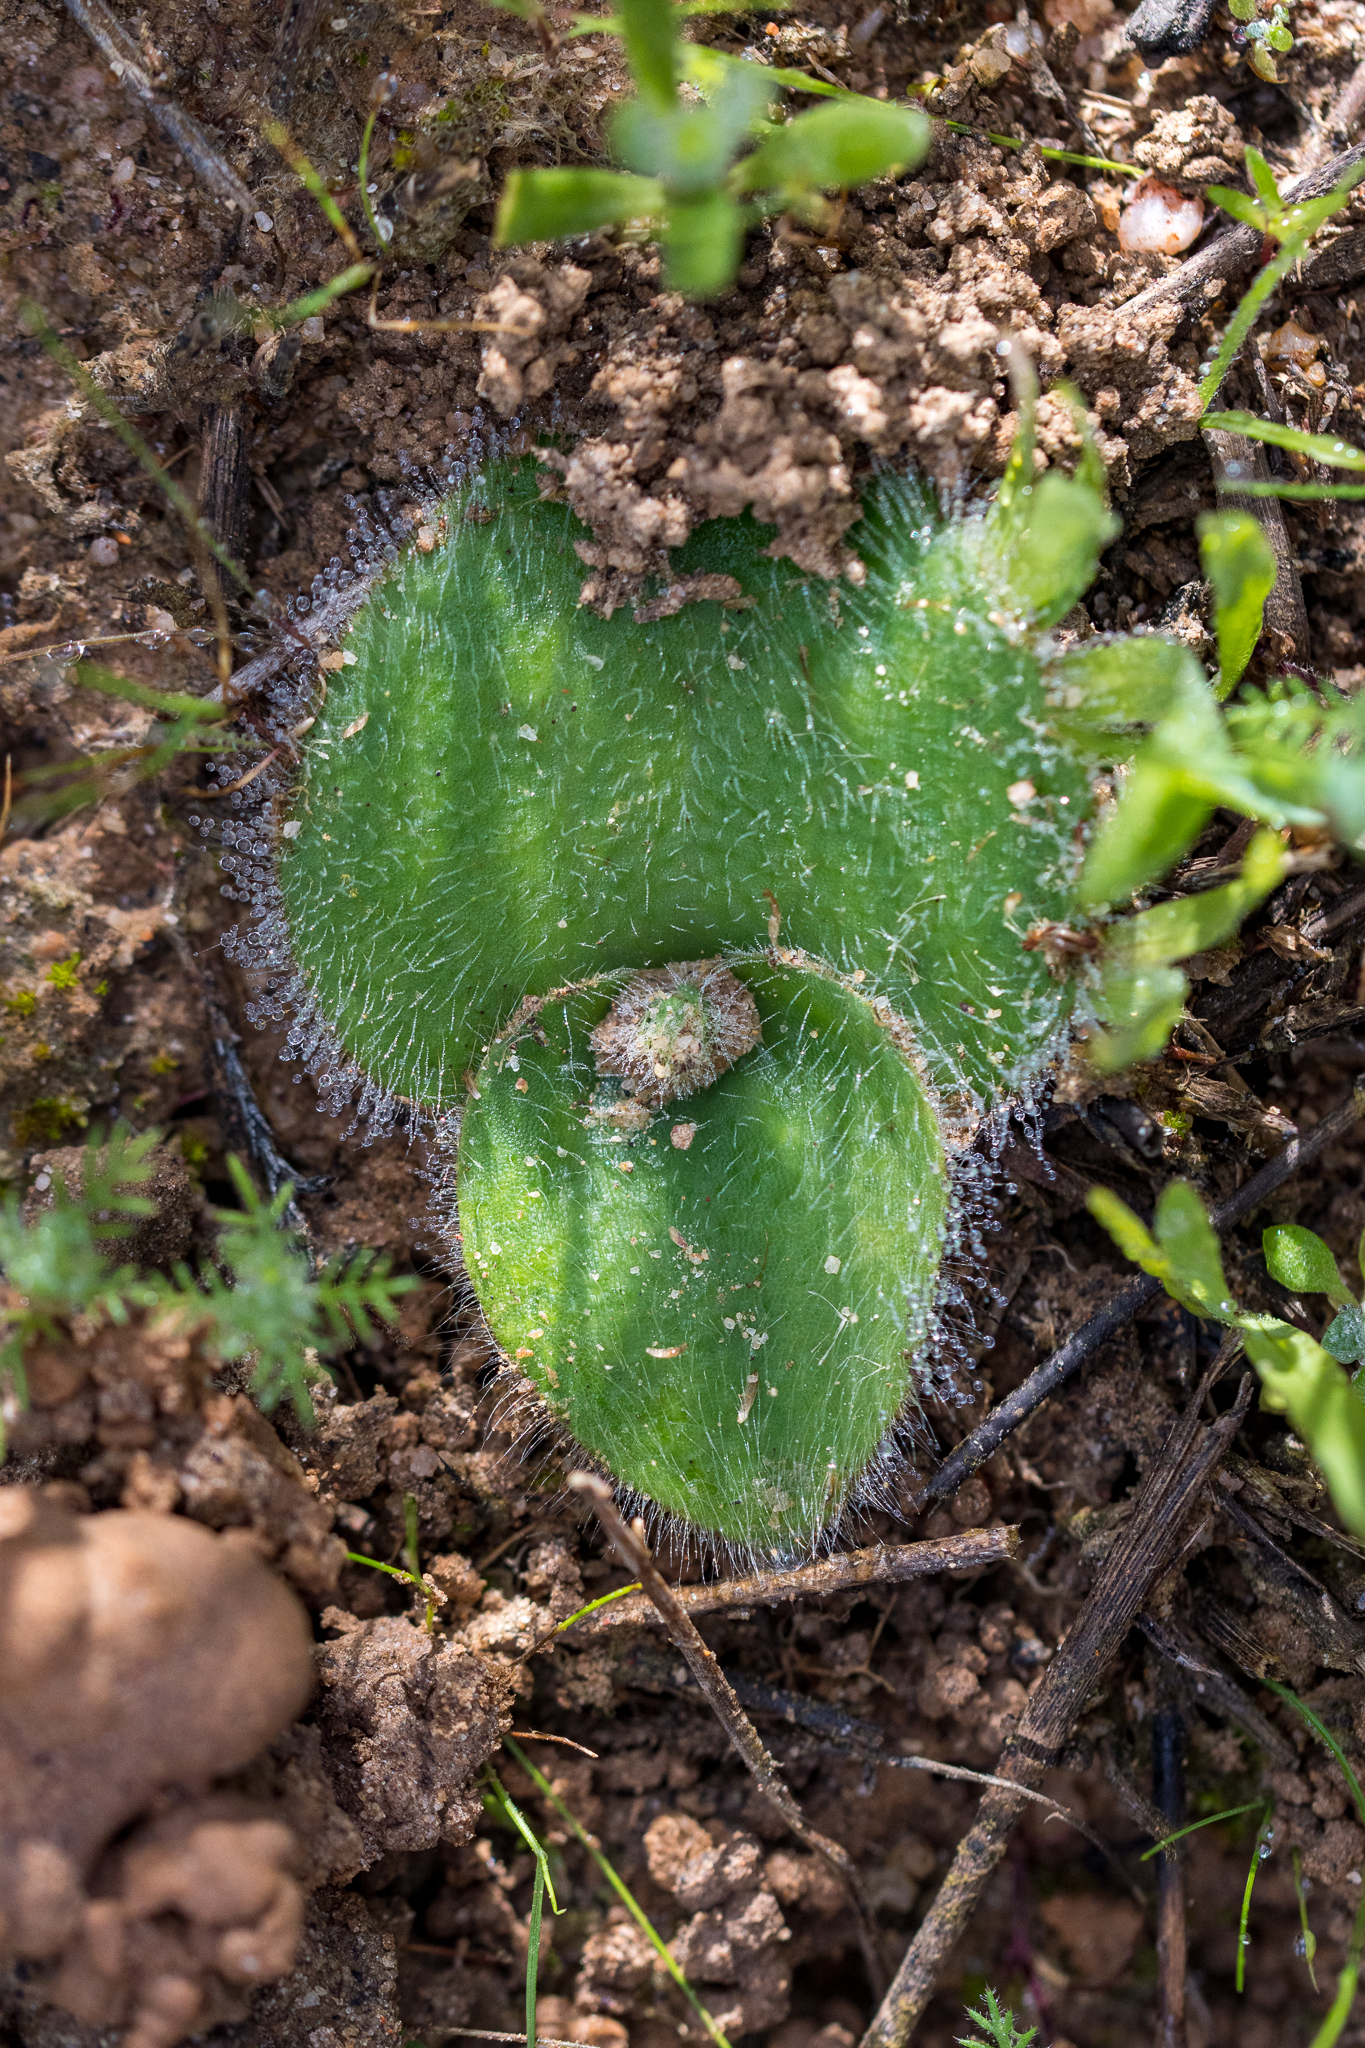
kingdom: Plantae
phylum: Tracheophyta
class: Liliopsida
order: Asparagales
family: Orchidaceae
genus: Holothrix
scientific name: Holothrix villosa
